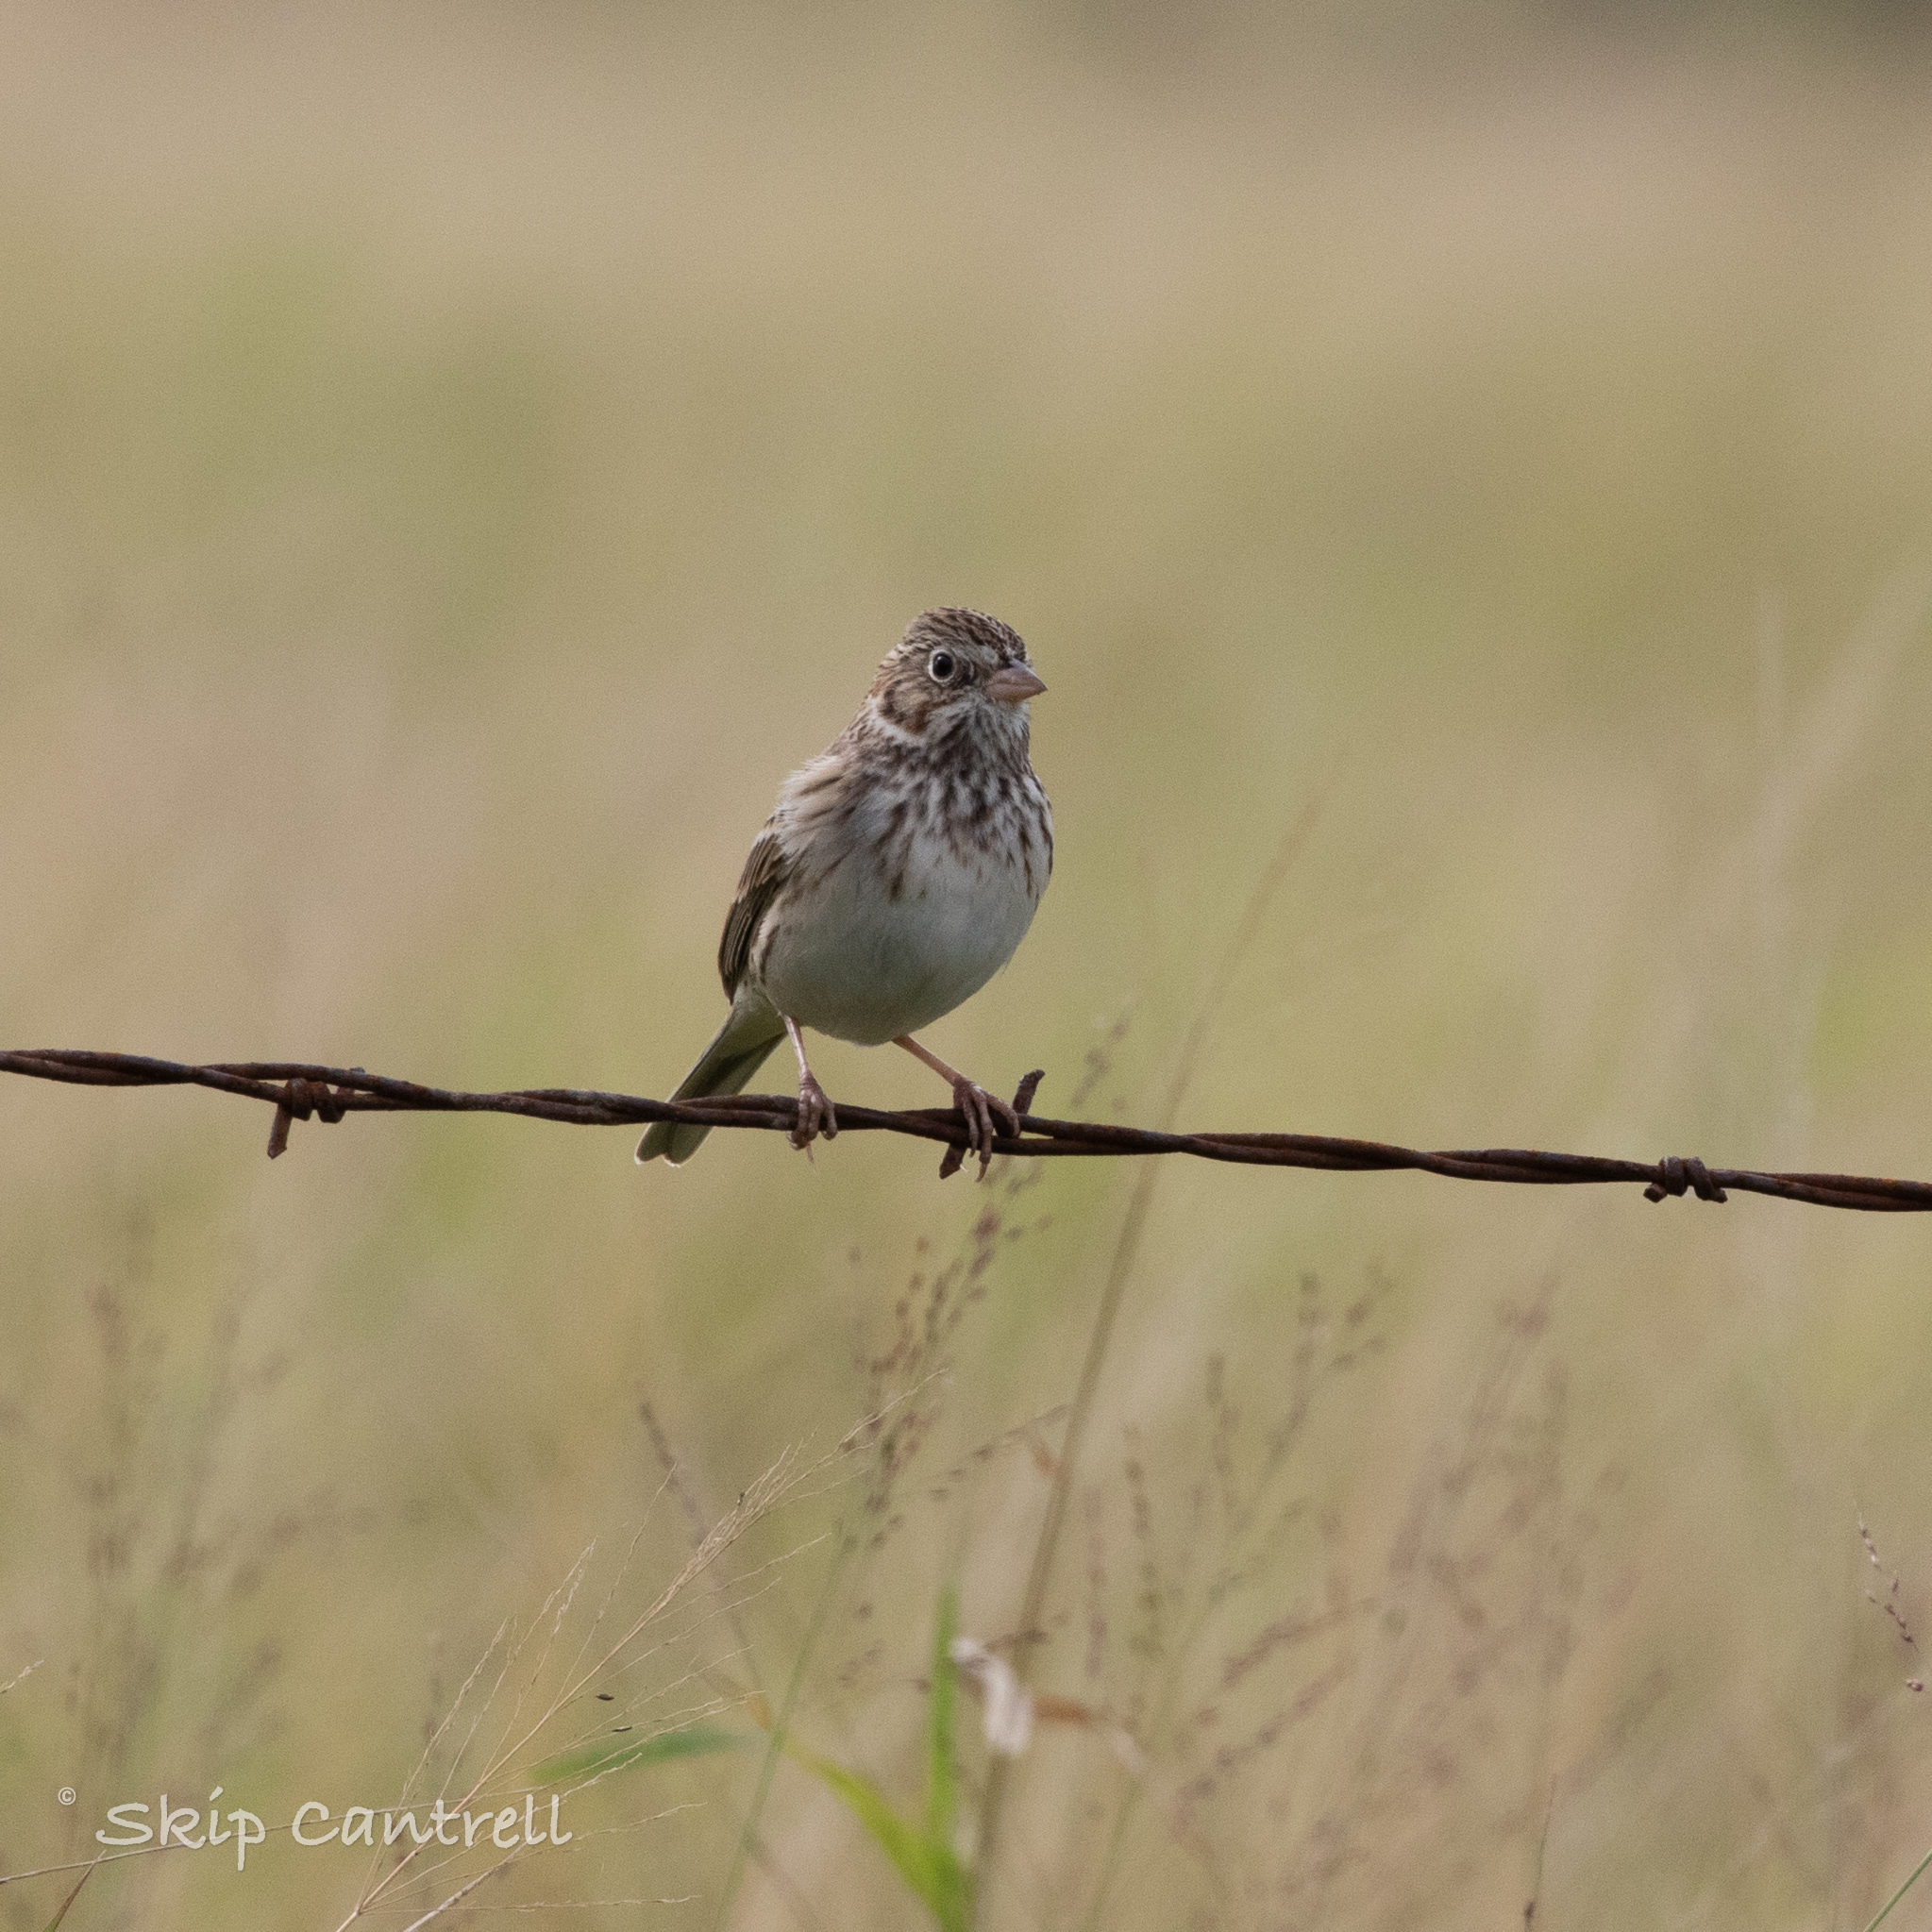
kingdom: Animalia
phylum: Chordata
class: Aves
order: Passeriformes
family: Passerellidae
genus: Pooecetes
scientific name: Pooecetes gramineus
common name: Vesper sparrow
